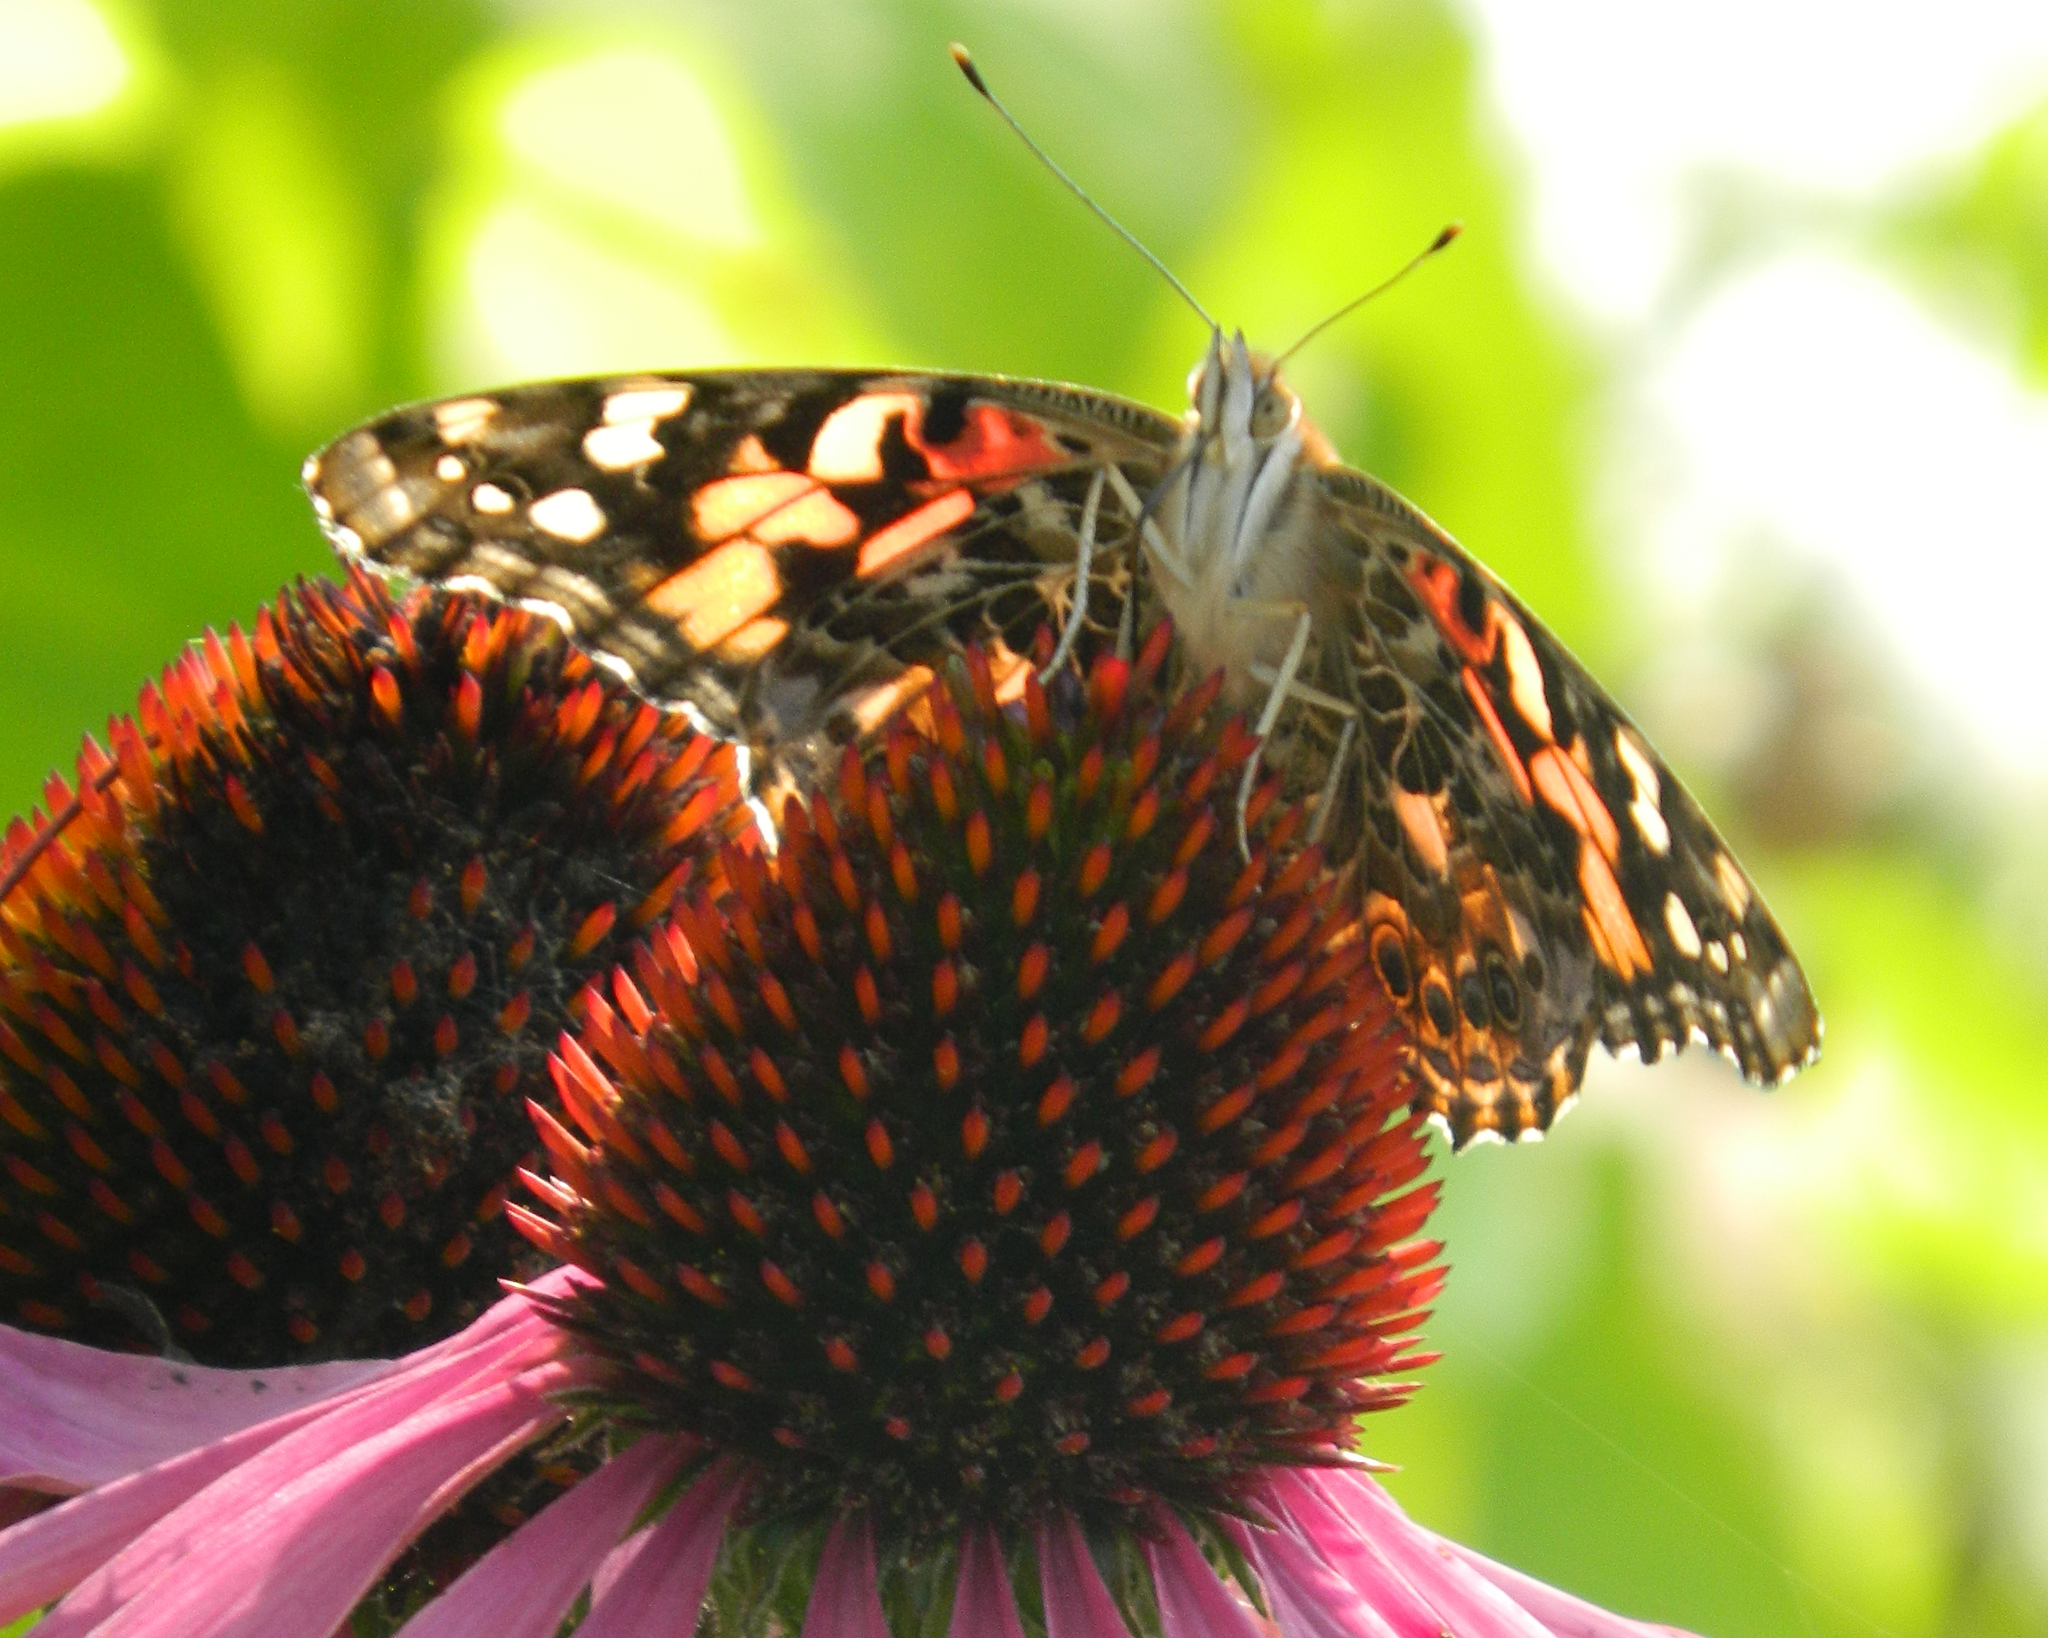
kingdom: Animalia
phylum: Arthropoda
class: Insecta
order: Lepidoptera
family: Nymphalidae
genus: Vanessa
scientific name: Vanessa cardui
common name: Painted lady
